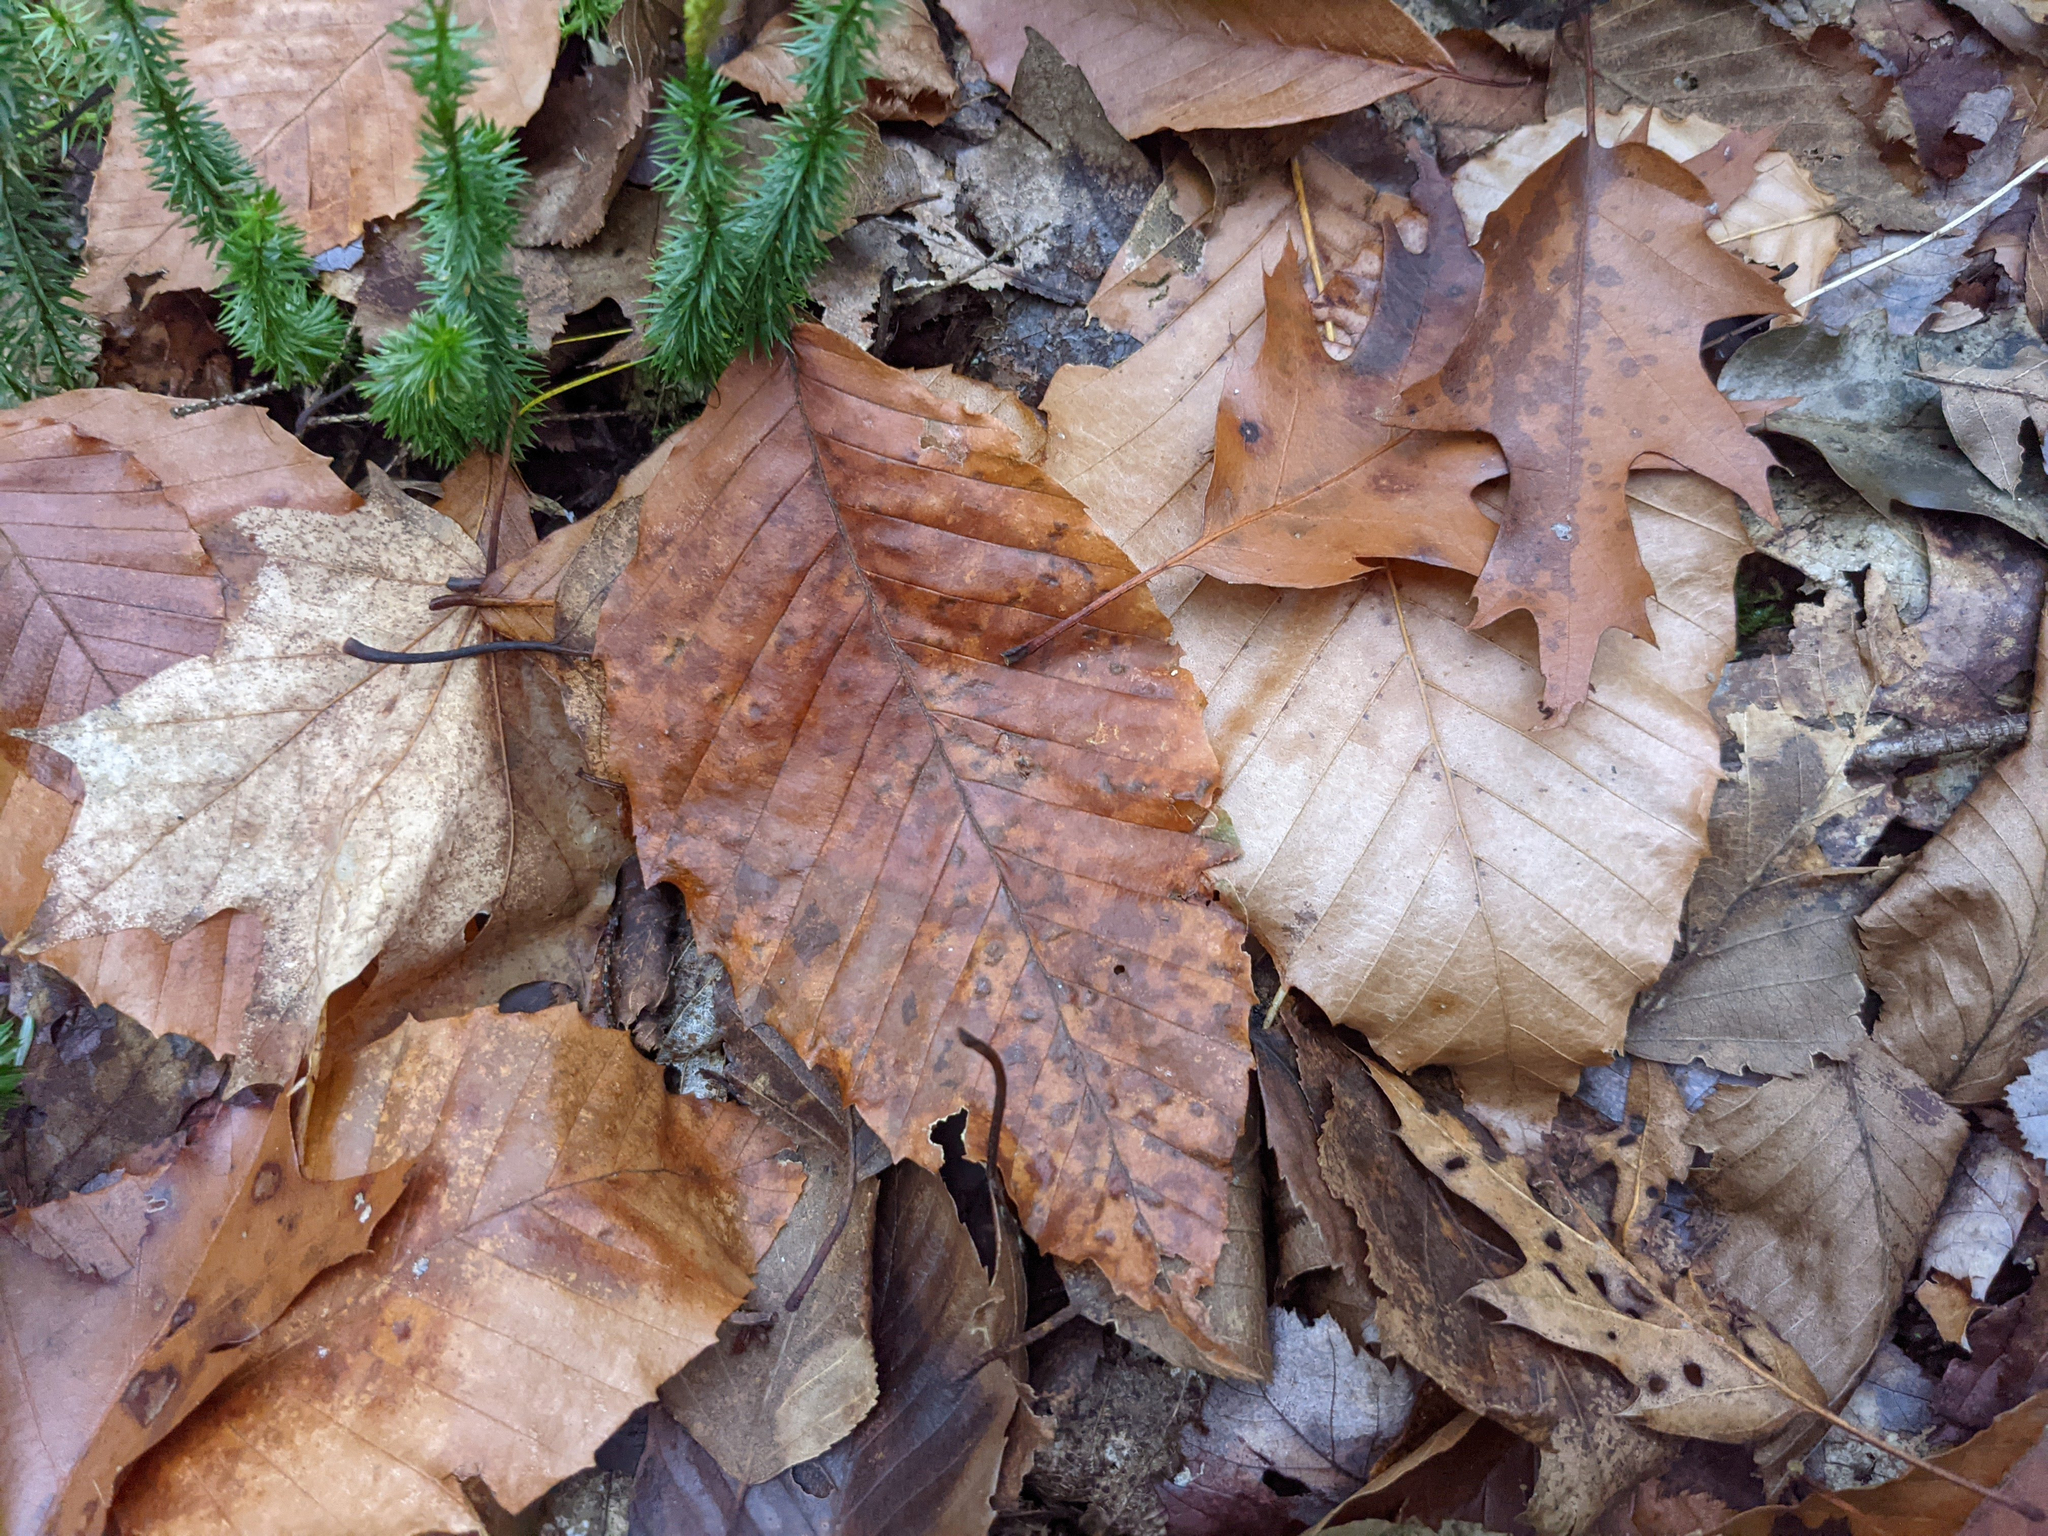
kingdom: Plantae
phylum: Tracheophyta
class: Magnoliopsida
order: Fagales
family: Fagaceae
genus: Fagus
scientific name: Fagus grandifolia
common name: American beech
